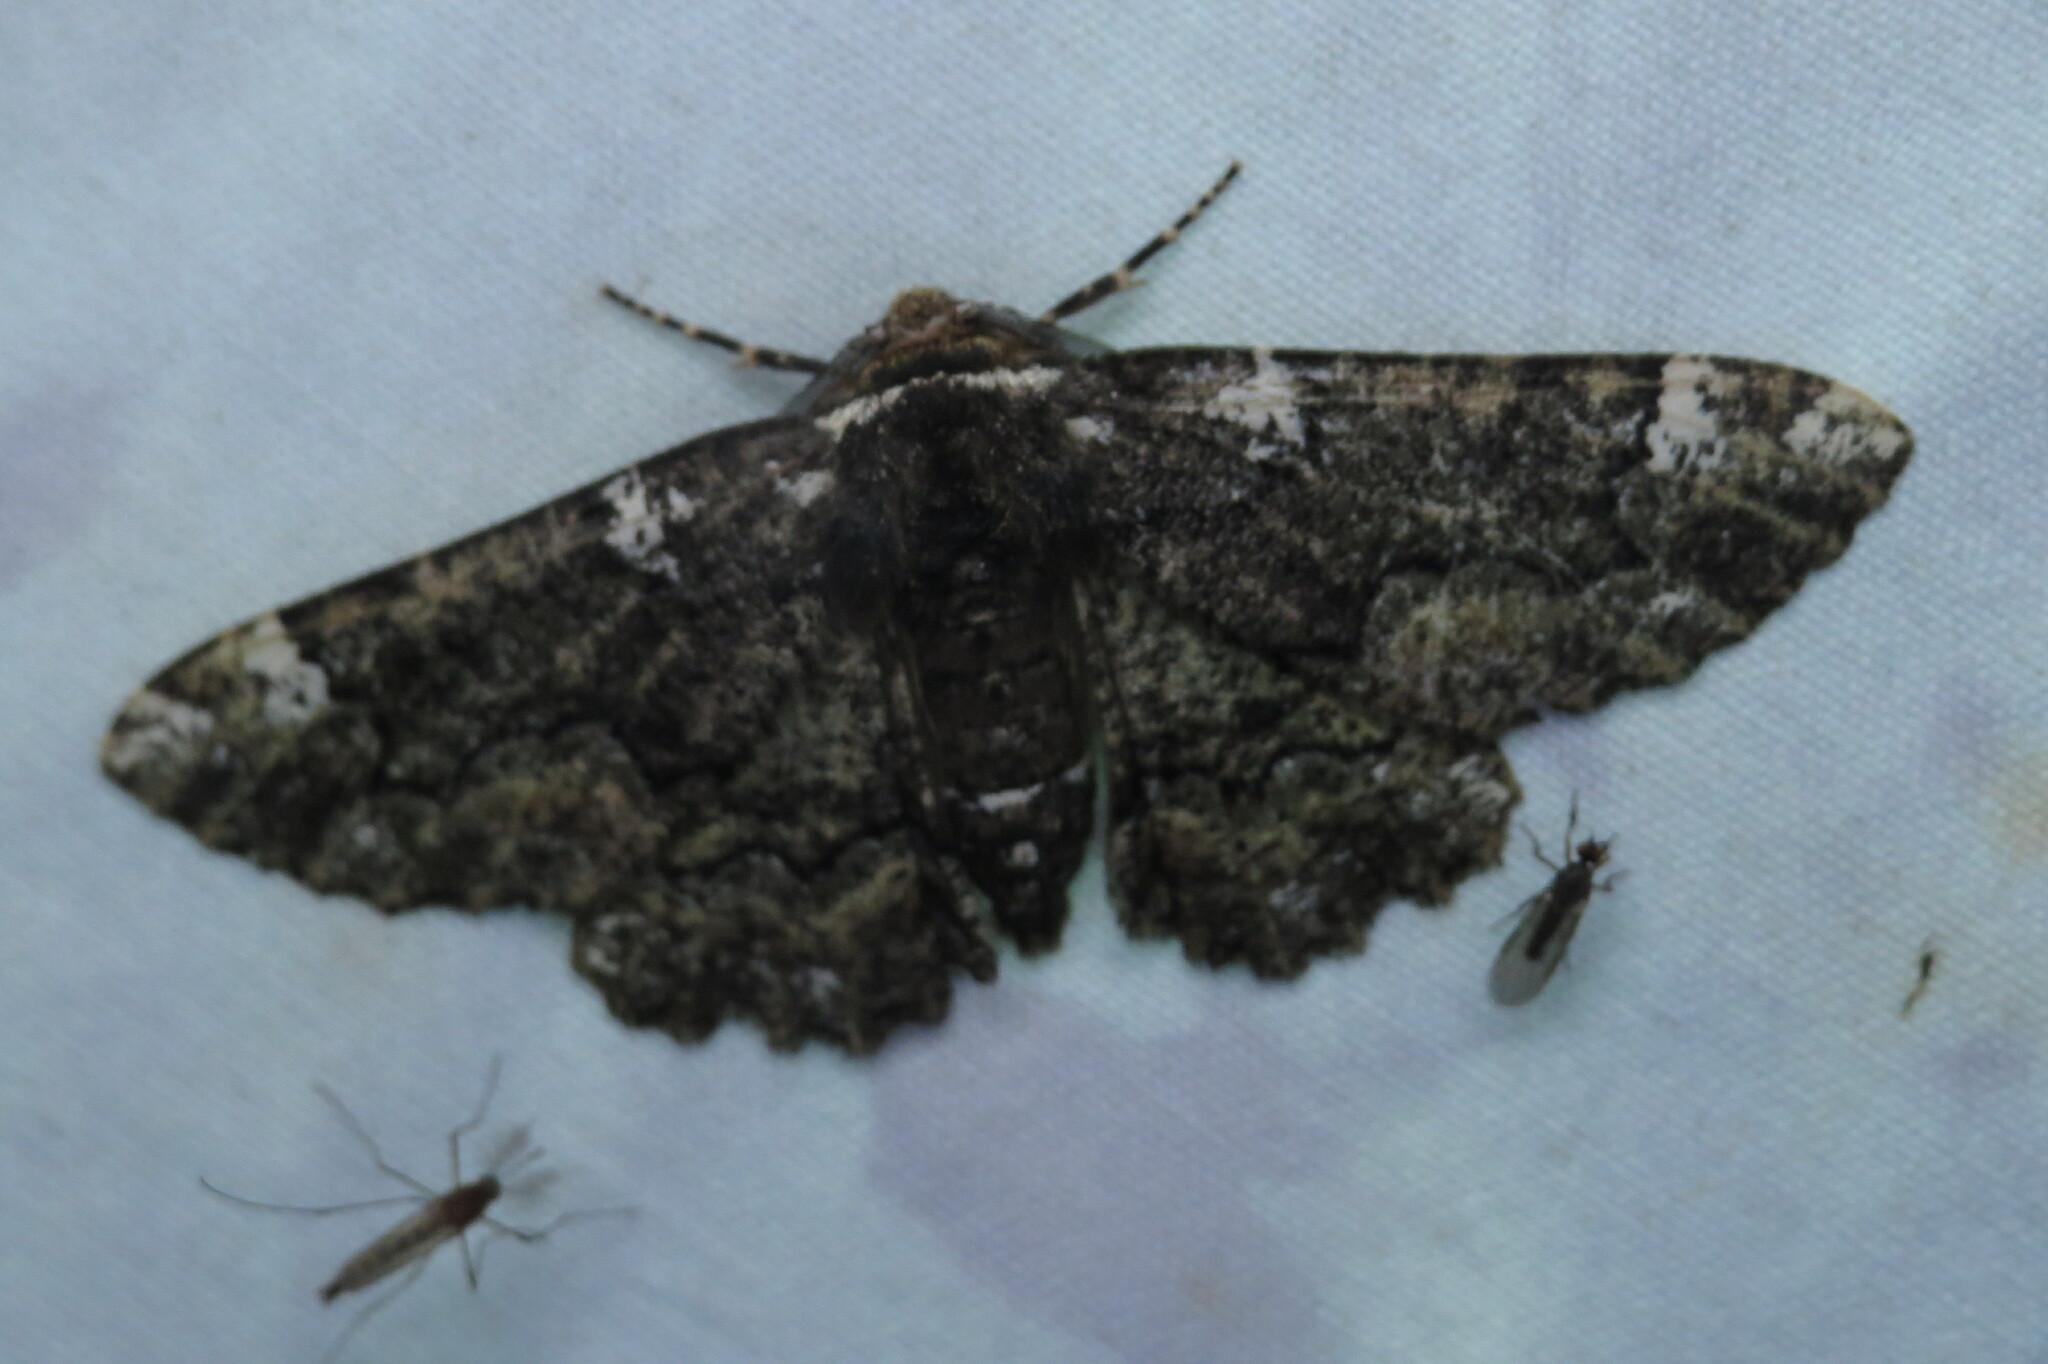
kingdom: Animalia
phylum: Arthropoda
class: Insecta
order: Lepidoptera
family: Geometridae
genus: Phaeoura
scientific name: Phaeoura quernaria
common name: Oak beauty
